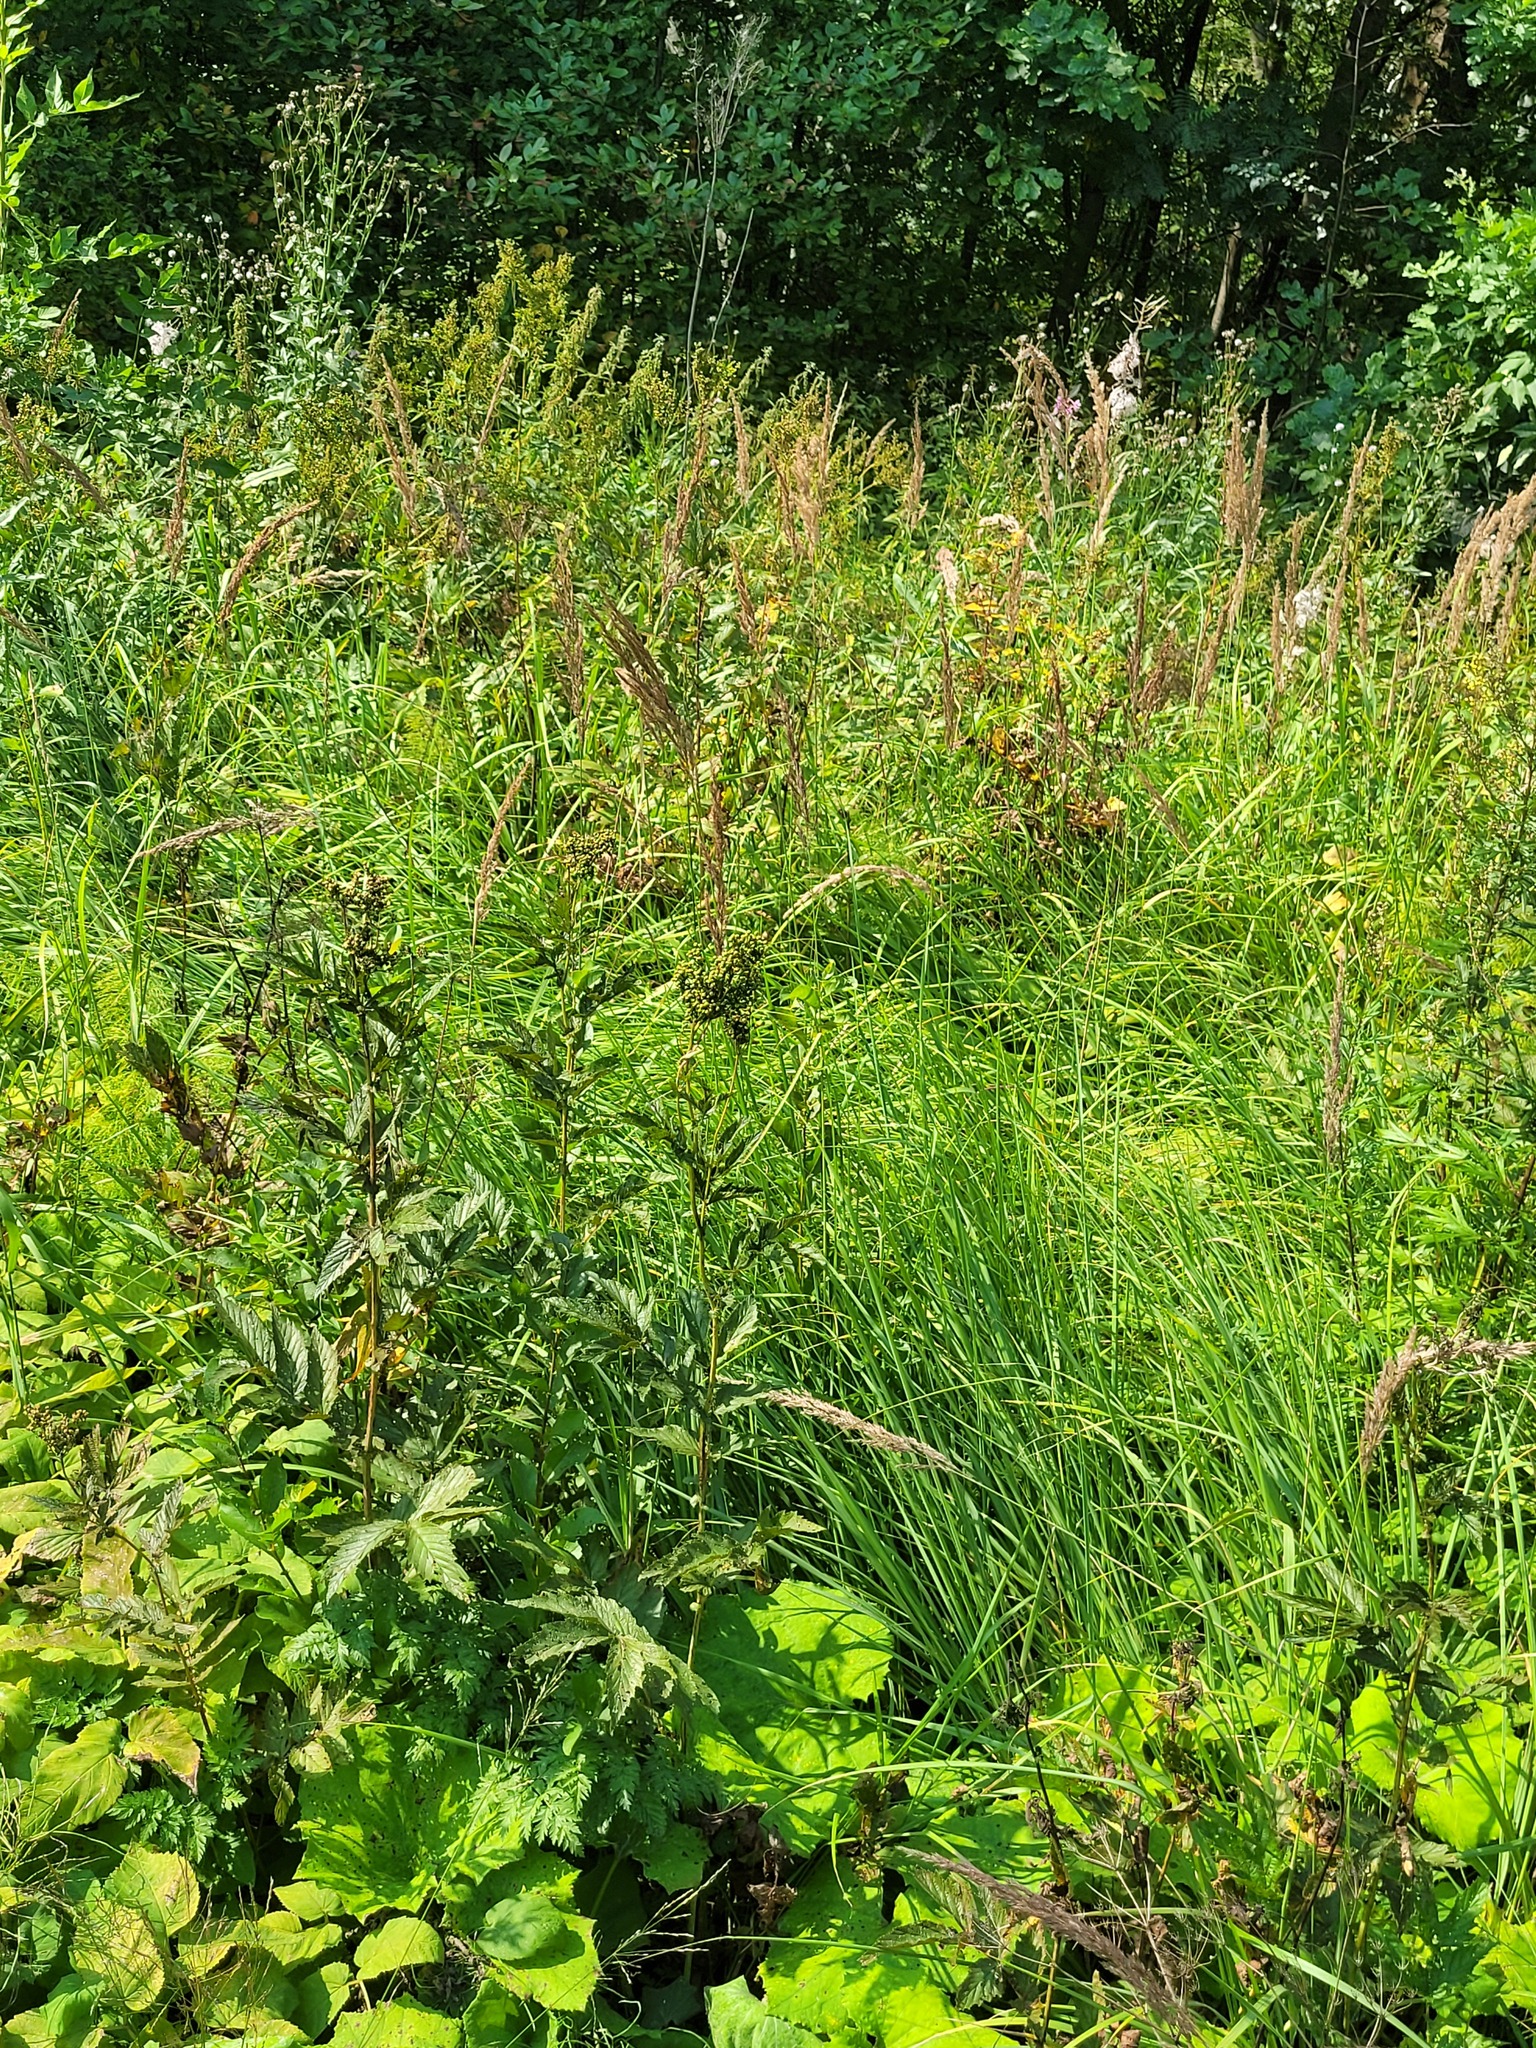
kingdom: Plantae
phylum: Tracheophyta
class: Magnoliopsida
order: Rosales
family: Rosaceae
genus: Filipendula
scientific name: Filipendula ulmaria
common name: Meadowsweet
